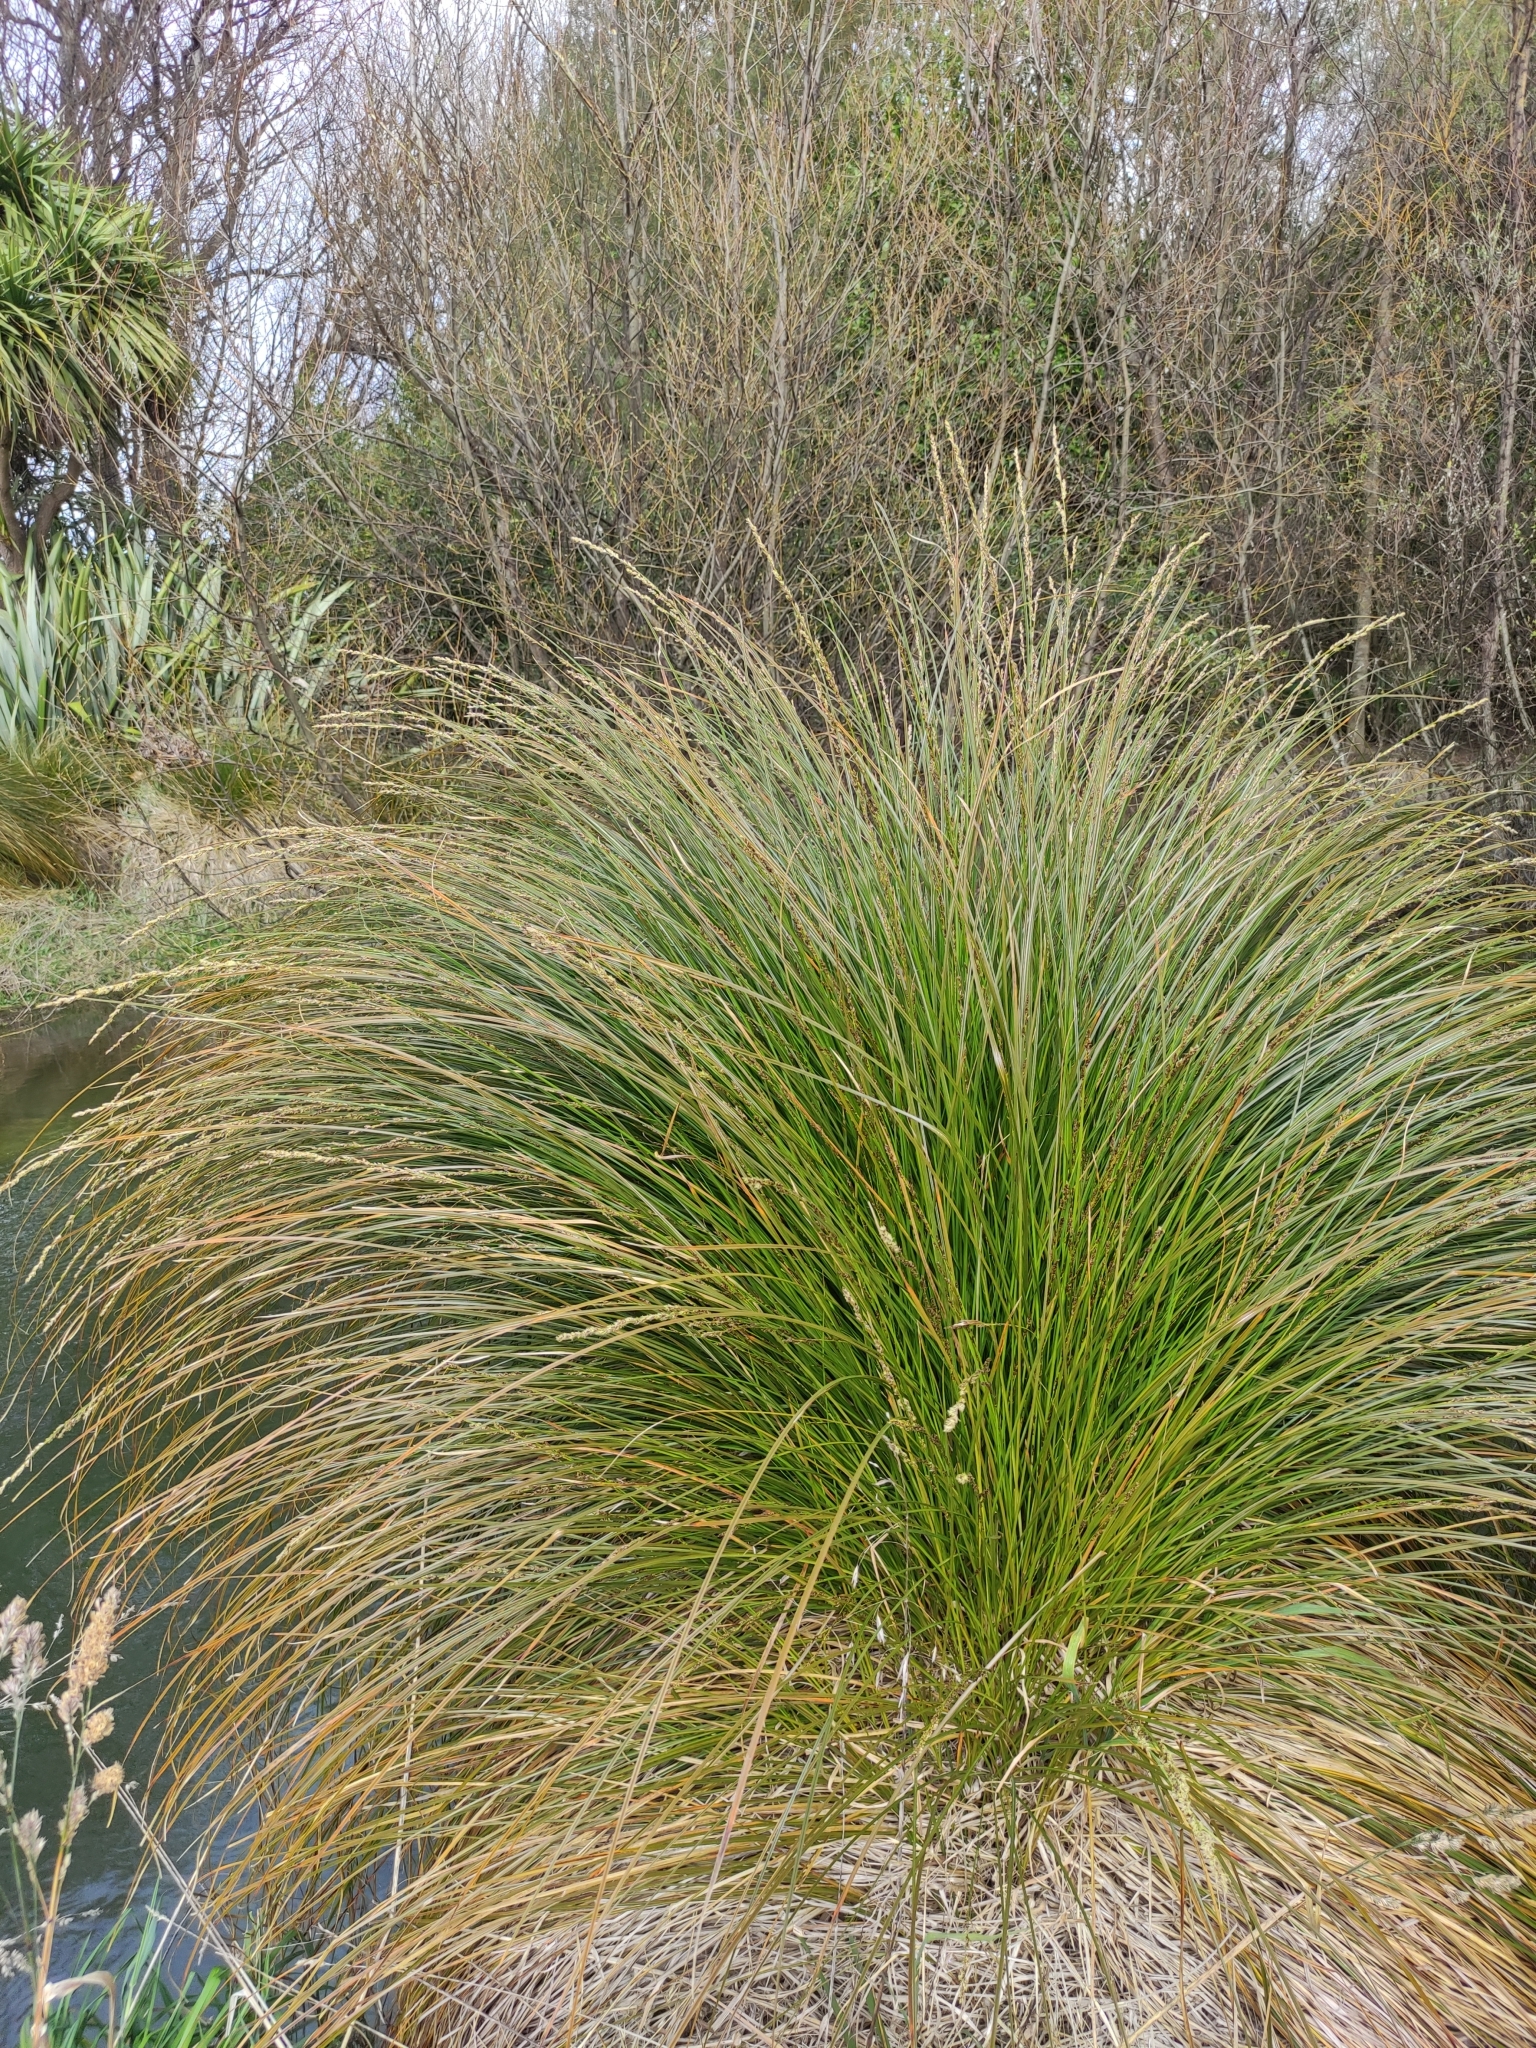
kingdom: Plantae
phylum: Tracheophyta
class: Liliopsida
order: Poales
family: Cyperaceae
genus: Carex
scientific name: Carex secta
